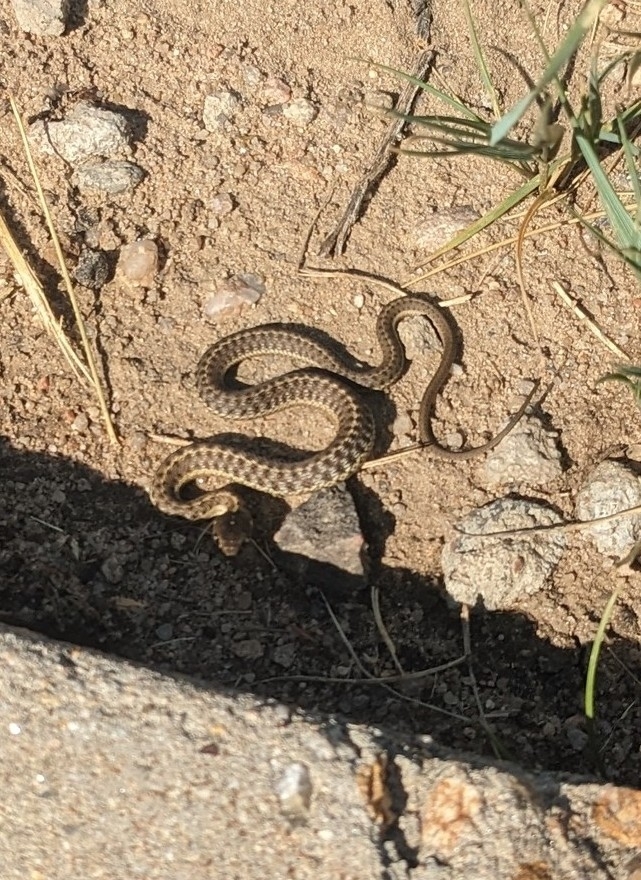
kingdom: Animalia
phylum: Chordata
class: Squamata
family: Colubridae
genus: Thamnophis
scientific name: Thamnophis elegans
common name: Western terrestrial garter snake
